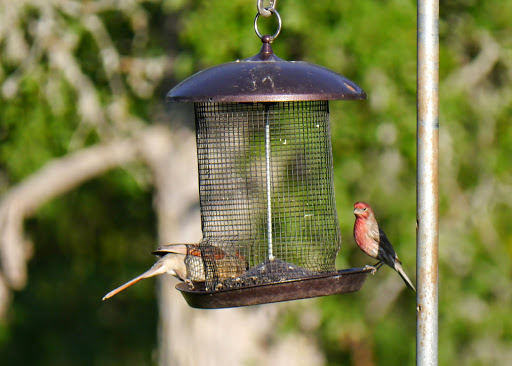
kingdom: Animalia
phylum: Chordata
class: Aves
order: Passeriformes
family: Fringillidae
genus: Haemorhous
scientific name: Haemorhous mexicanus
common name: House finch
